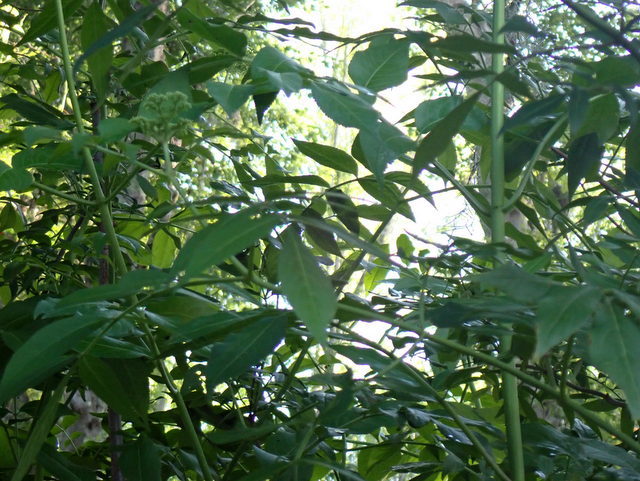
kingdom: Plantae
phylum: Tracheophyta
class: Magnoliopsida
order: Dipsacales
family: Viburnaceae
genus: Sambucus
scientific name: Sambucus canadensis
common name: American elder
